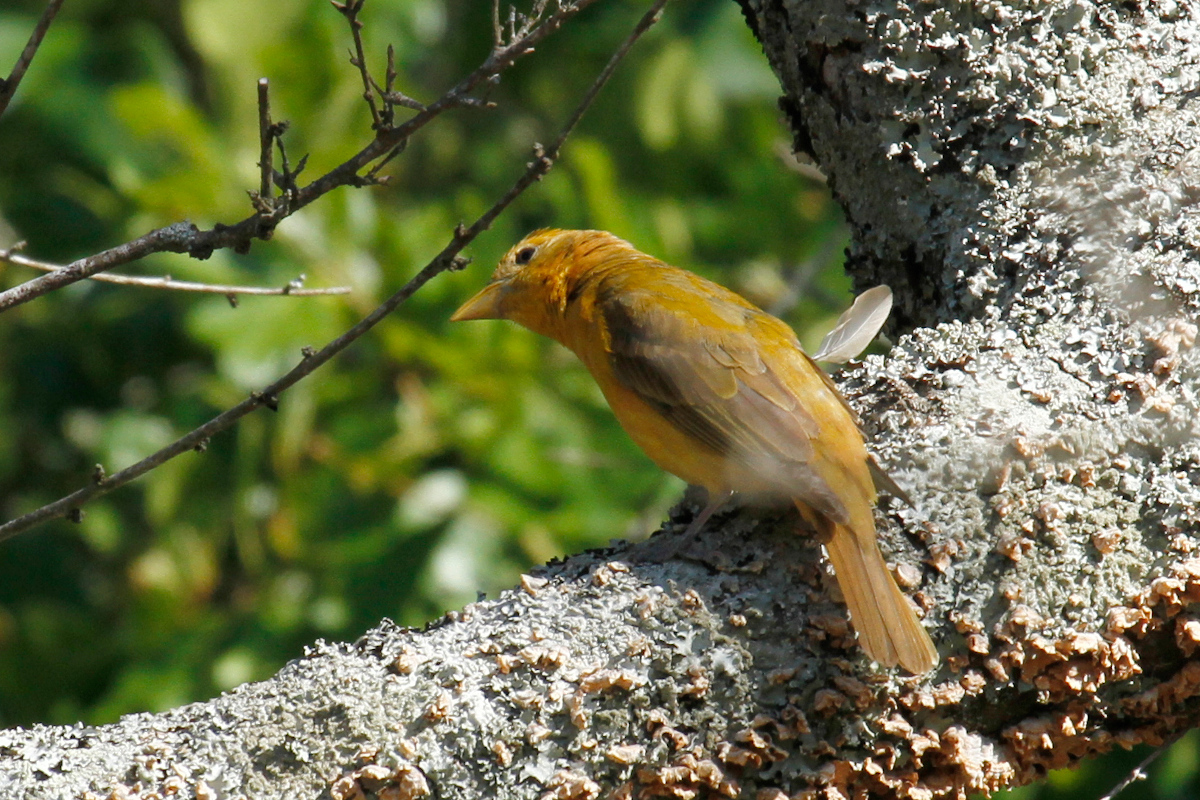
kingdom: Animalia
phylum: Chordata
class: Aves
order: Passeriformes
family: Cardinalidae
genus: Piranga
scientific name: Piranga rubra
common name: Summer tanager
